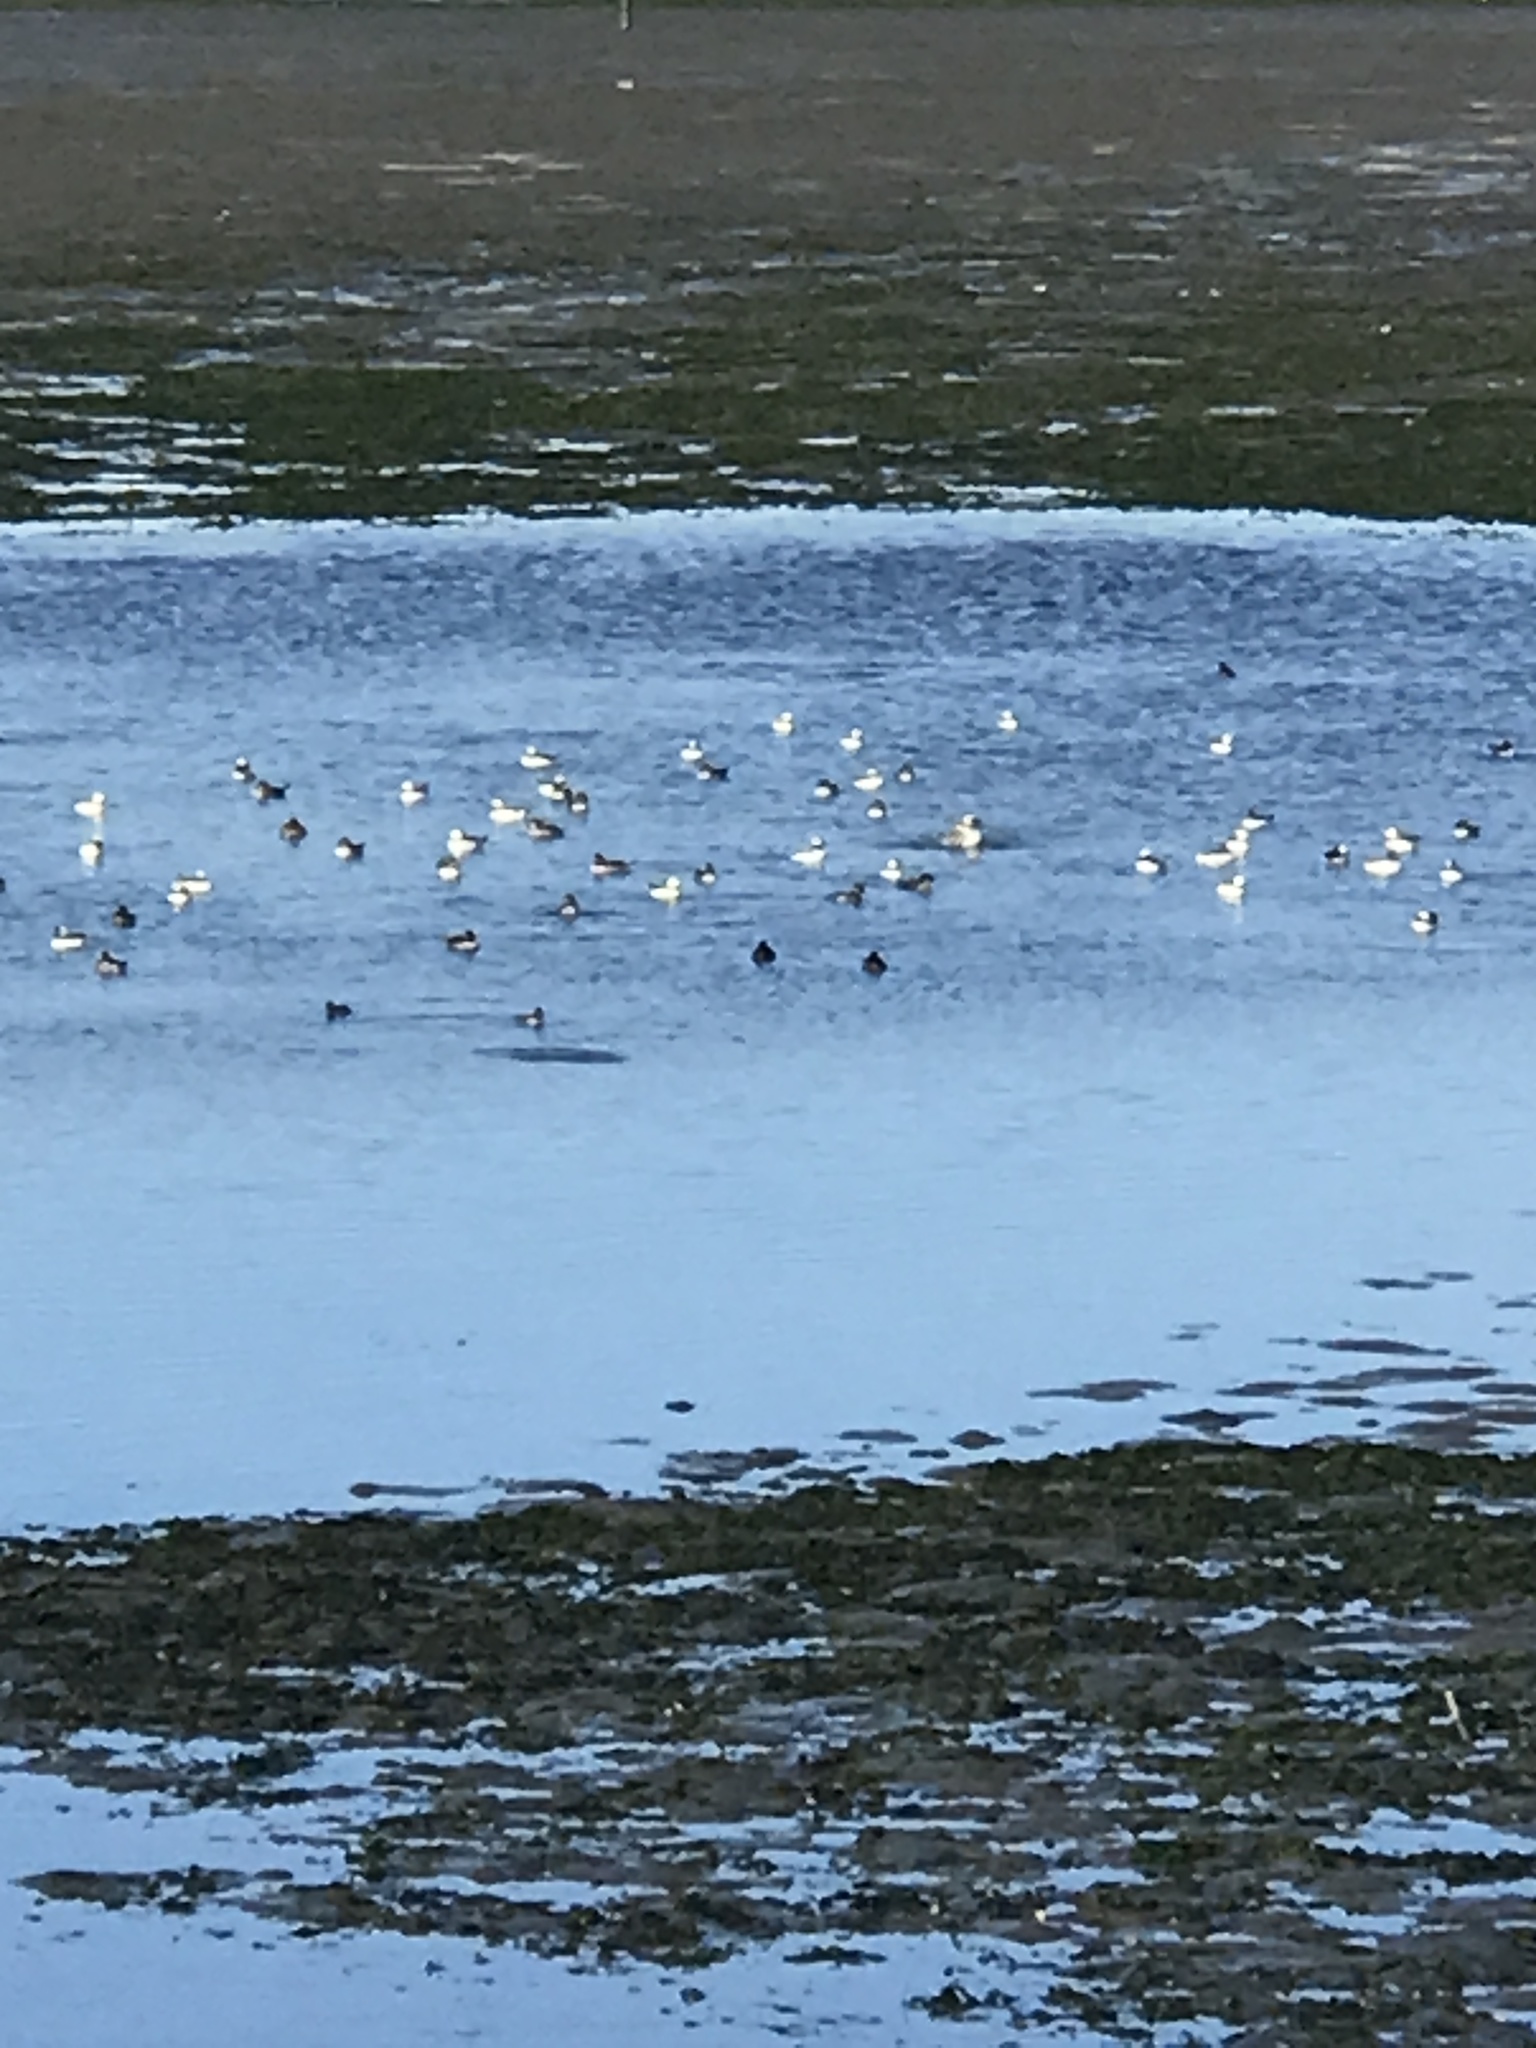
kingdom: Animalia
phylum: Chordata
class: Aves
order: Anseriformes
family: Anatidae
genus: Bucephala
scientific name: Bucephala albeola
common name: Bufflehead
